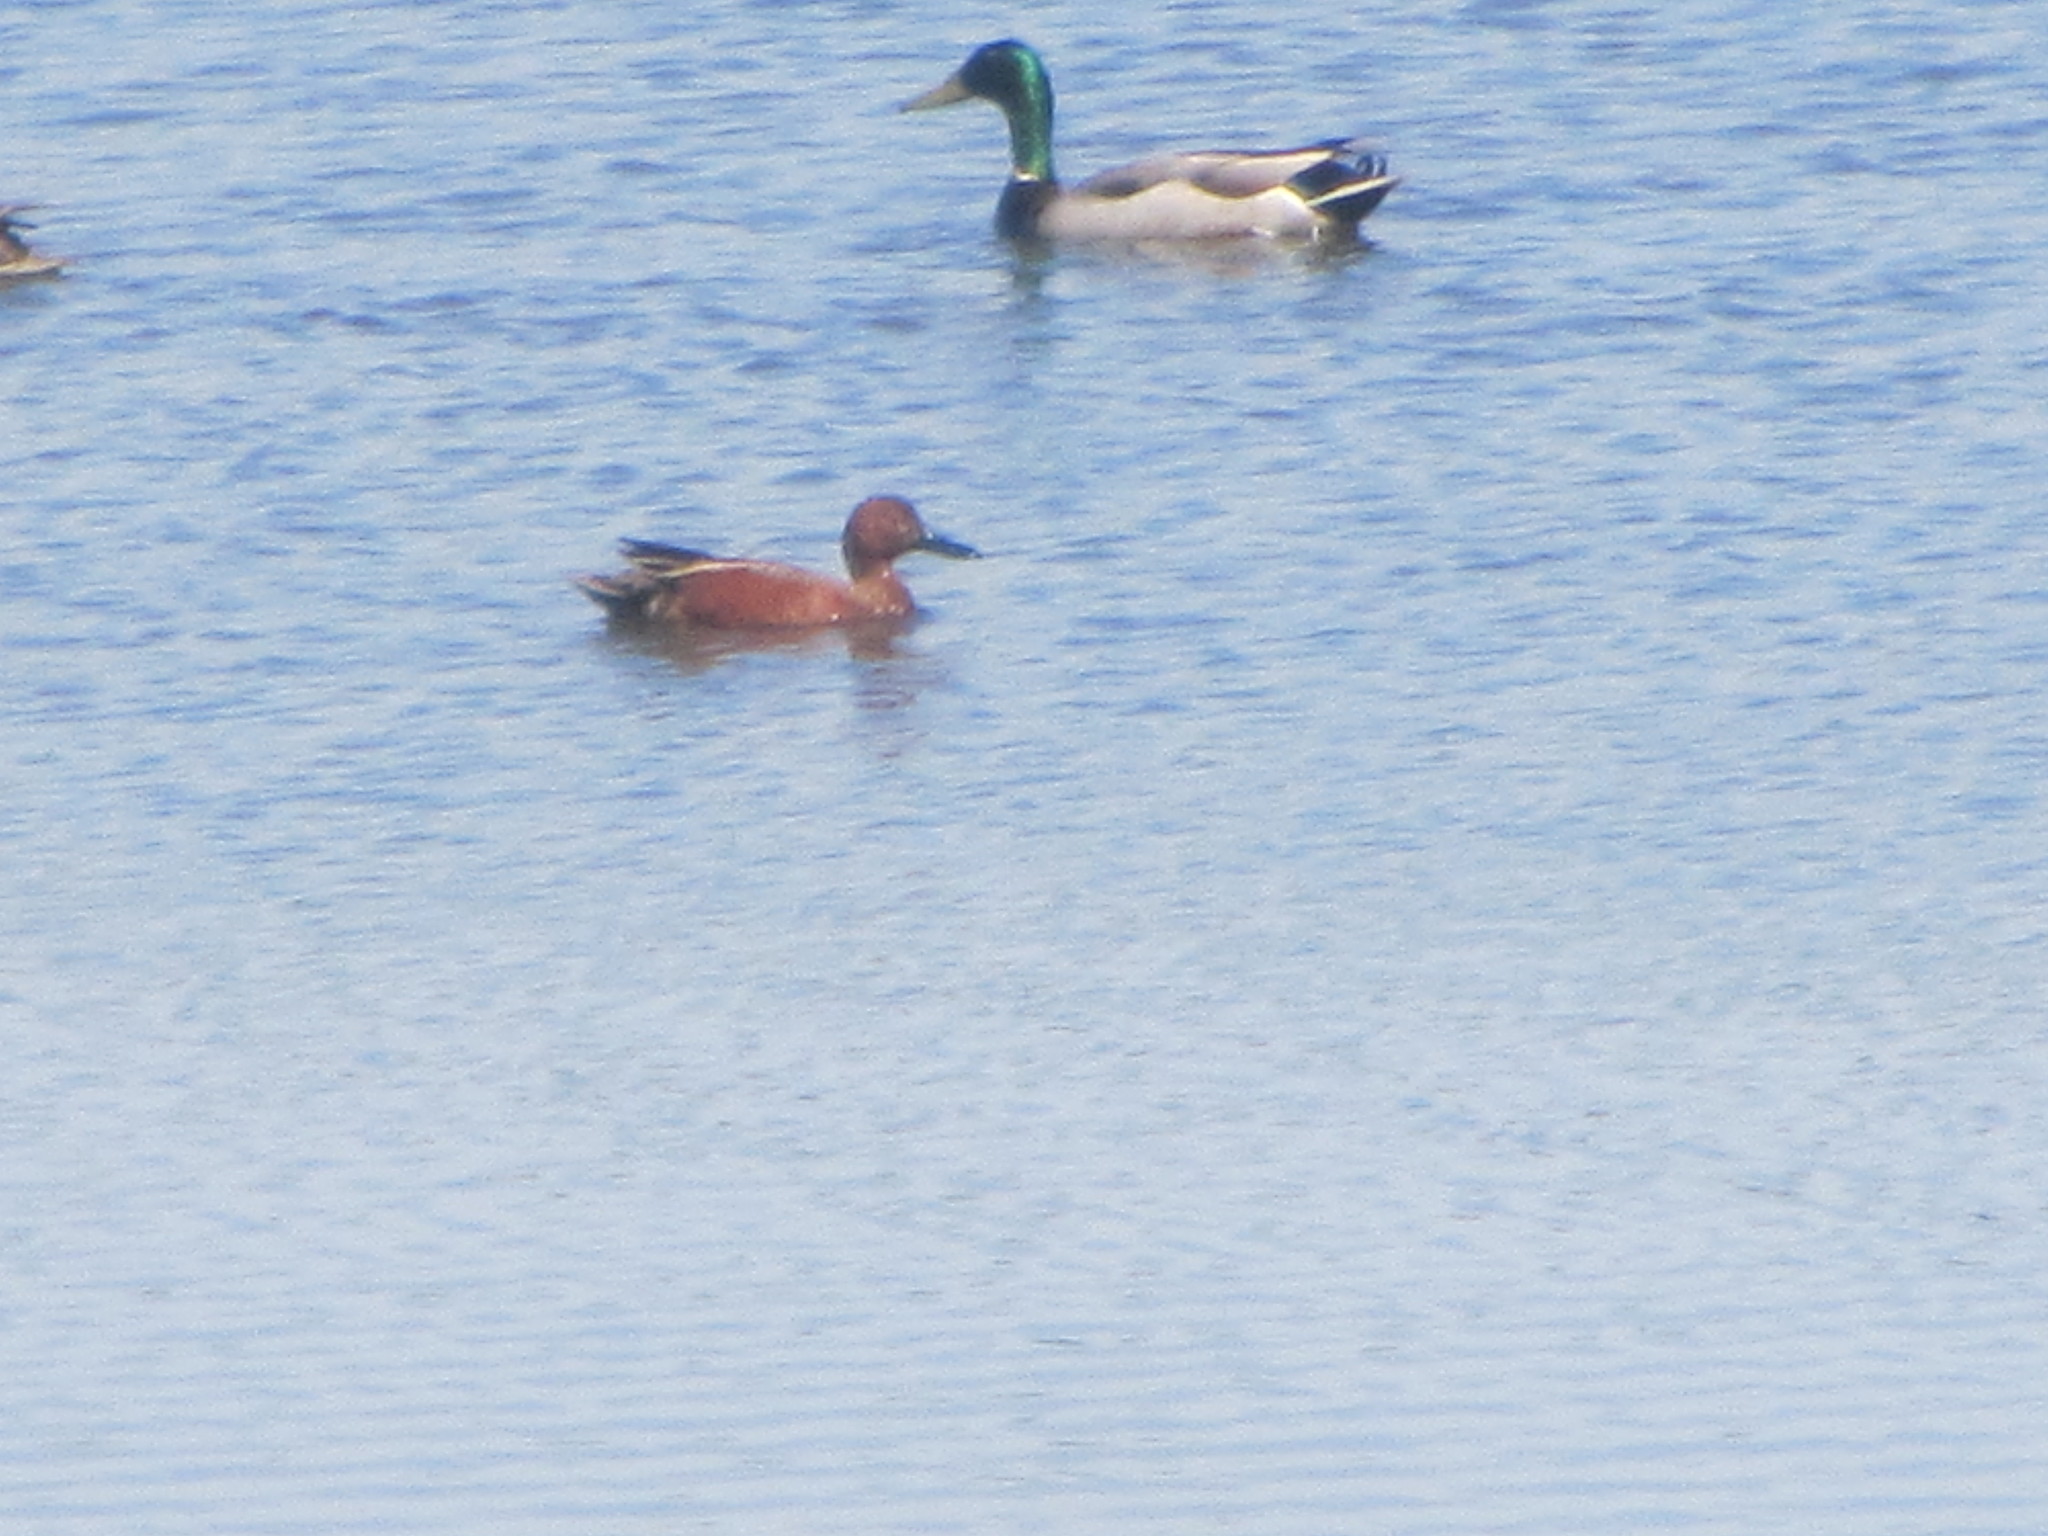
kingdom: Animalia
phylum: Chordata
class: Aves
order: Anseriformes
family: Anatidae
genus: Spatula
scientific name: Spatula cyanoptera
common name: Cinnamon teal
